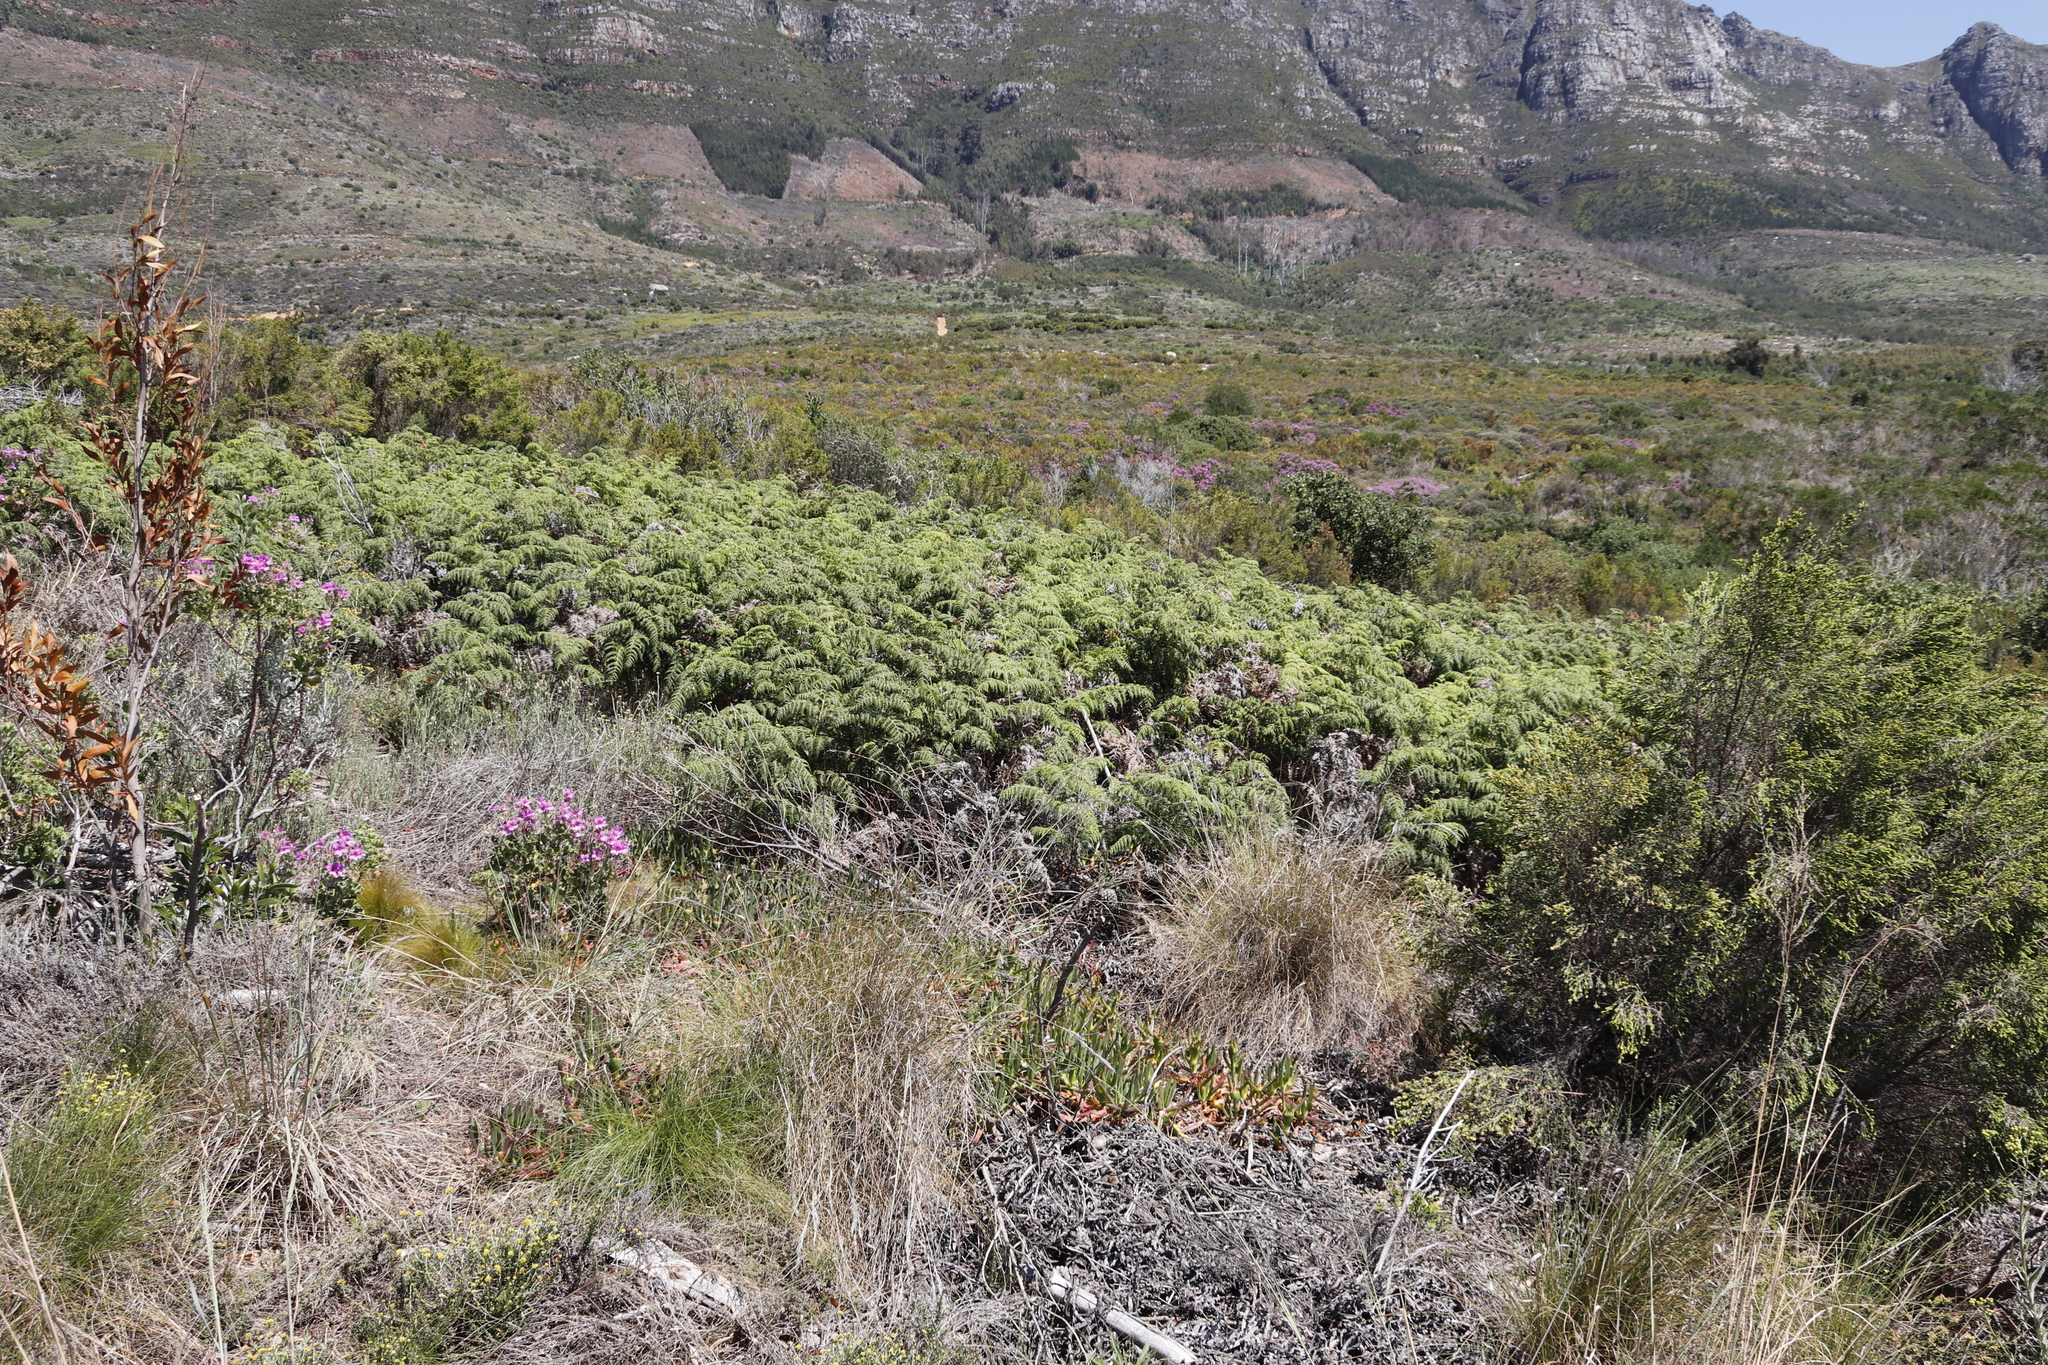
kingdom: Plantae
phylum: Tracheophyta
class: Polypodiopsida
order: Polypodiales
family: Dennstaedtiaceae
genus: Pteridium
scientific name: Pteridium aquilinum
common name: Bracken
